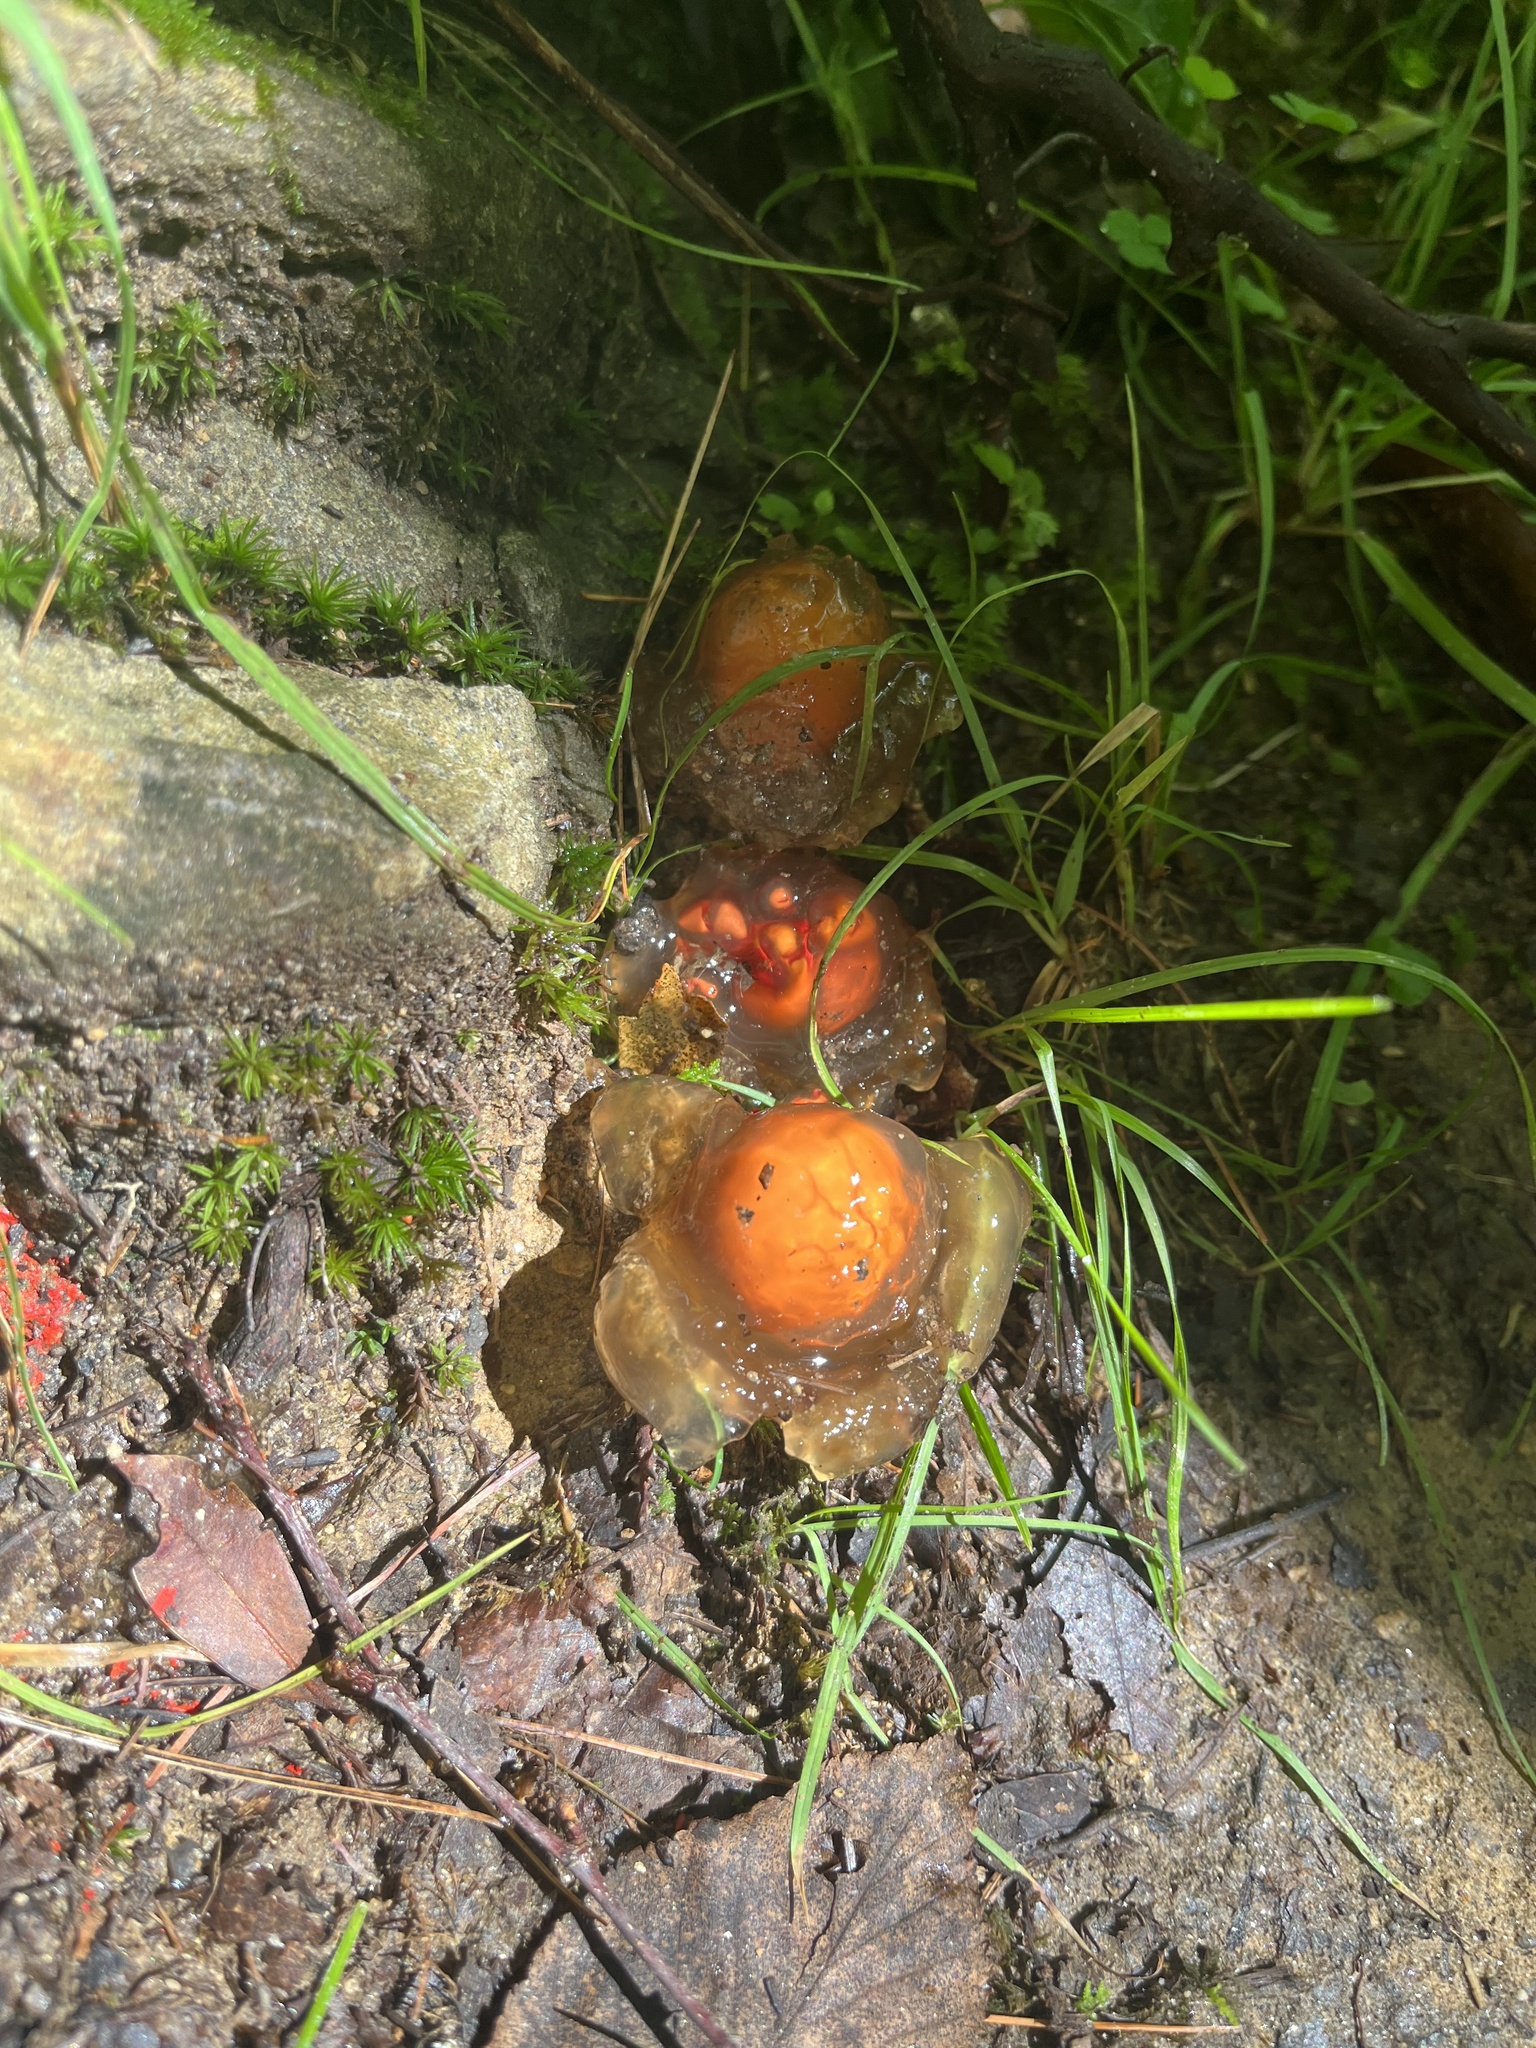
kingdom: Fungi
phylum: Basidiomycota
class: Agaricomycetes
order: Boletales
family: Calostomataceae
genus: Calostoma
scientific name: Calostoma cinnabarinum
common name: Stalked puffball-in-aspic
